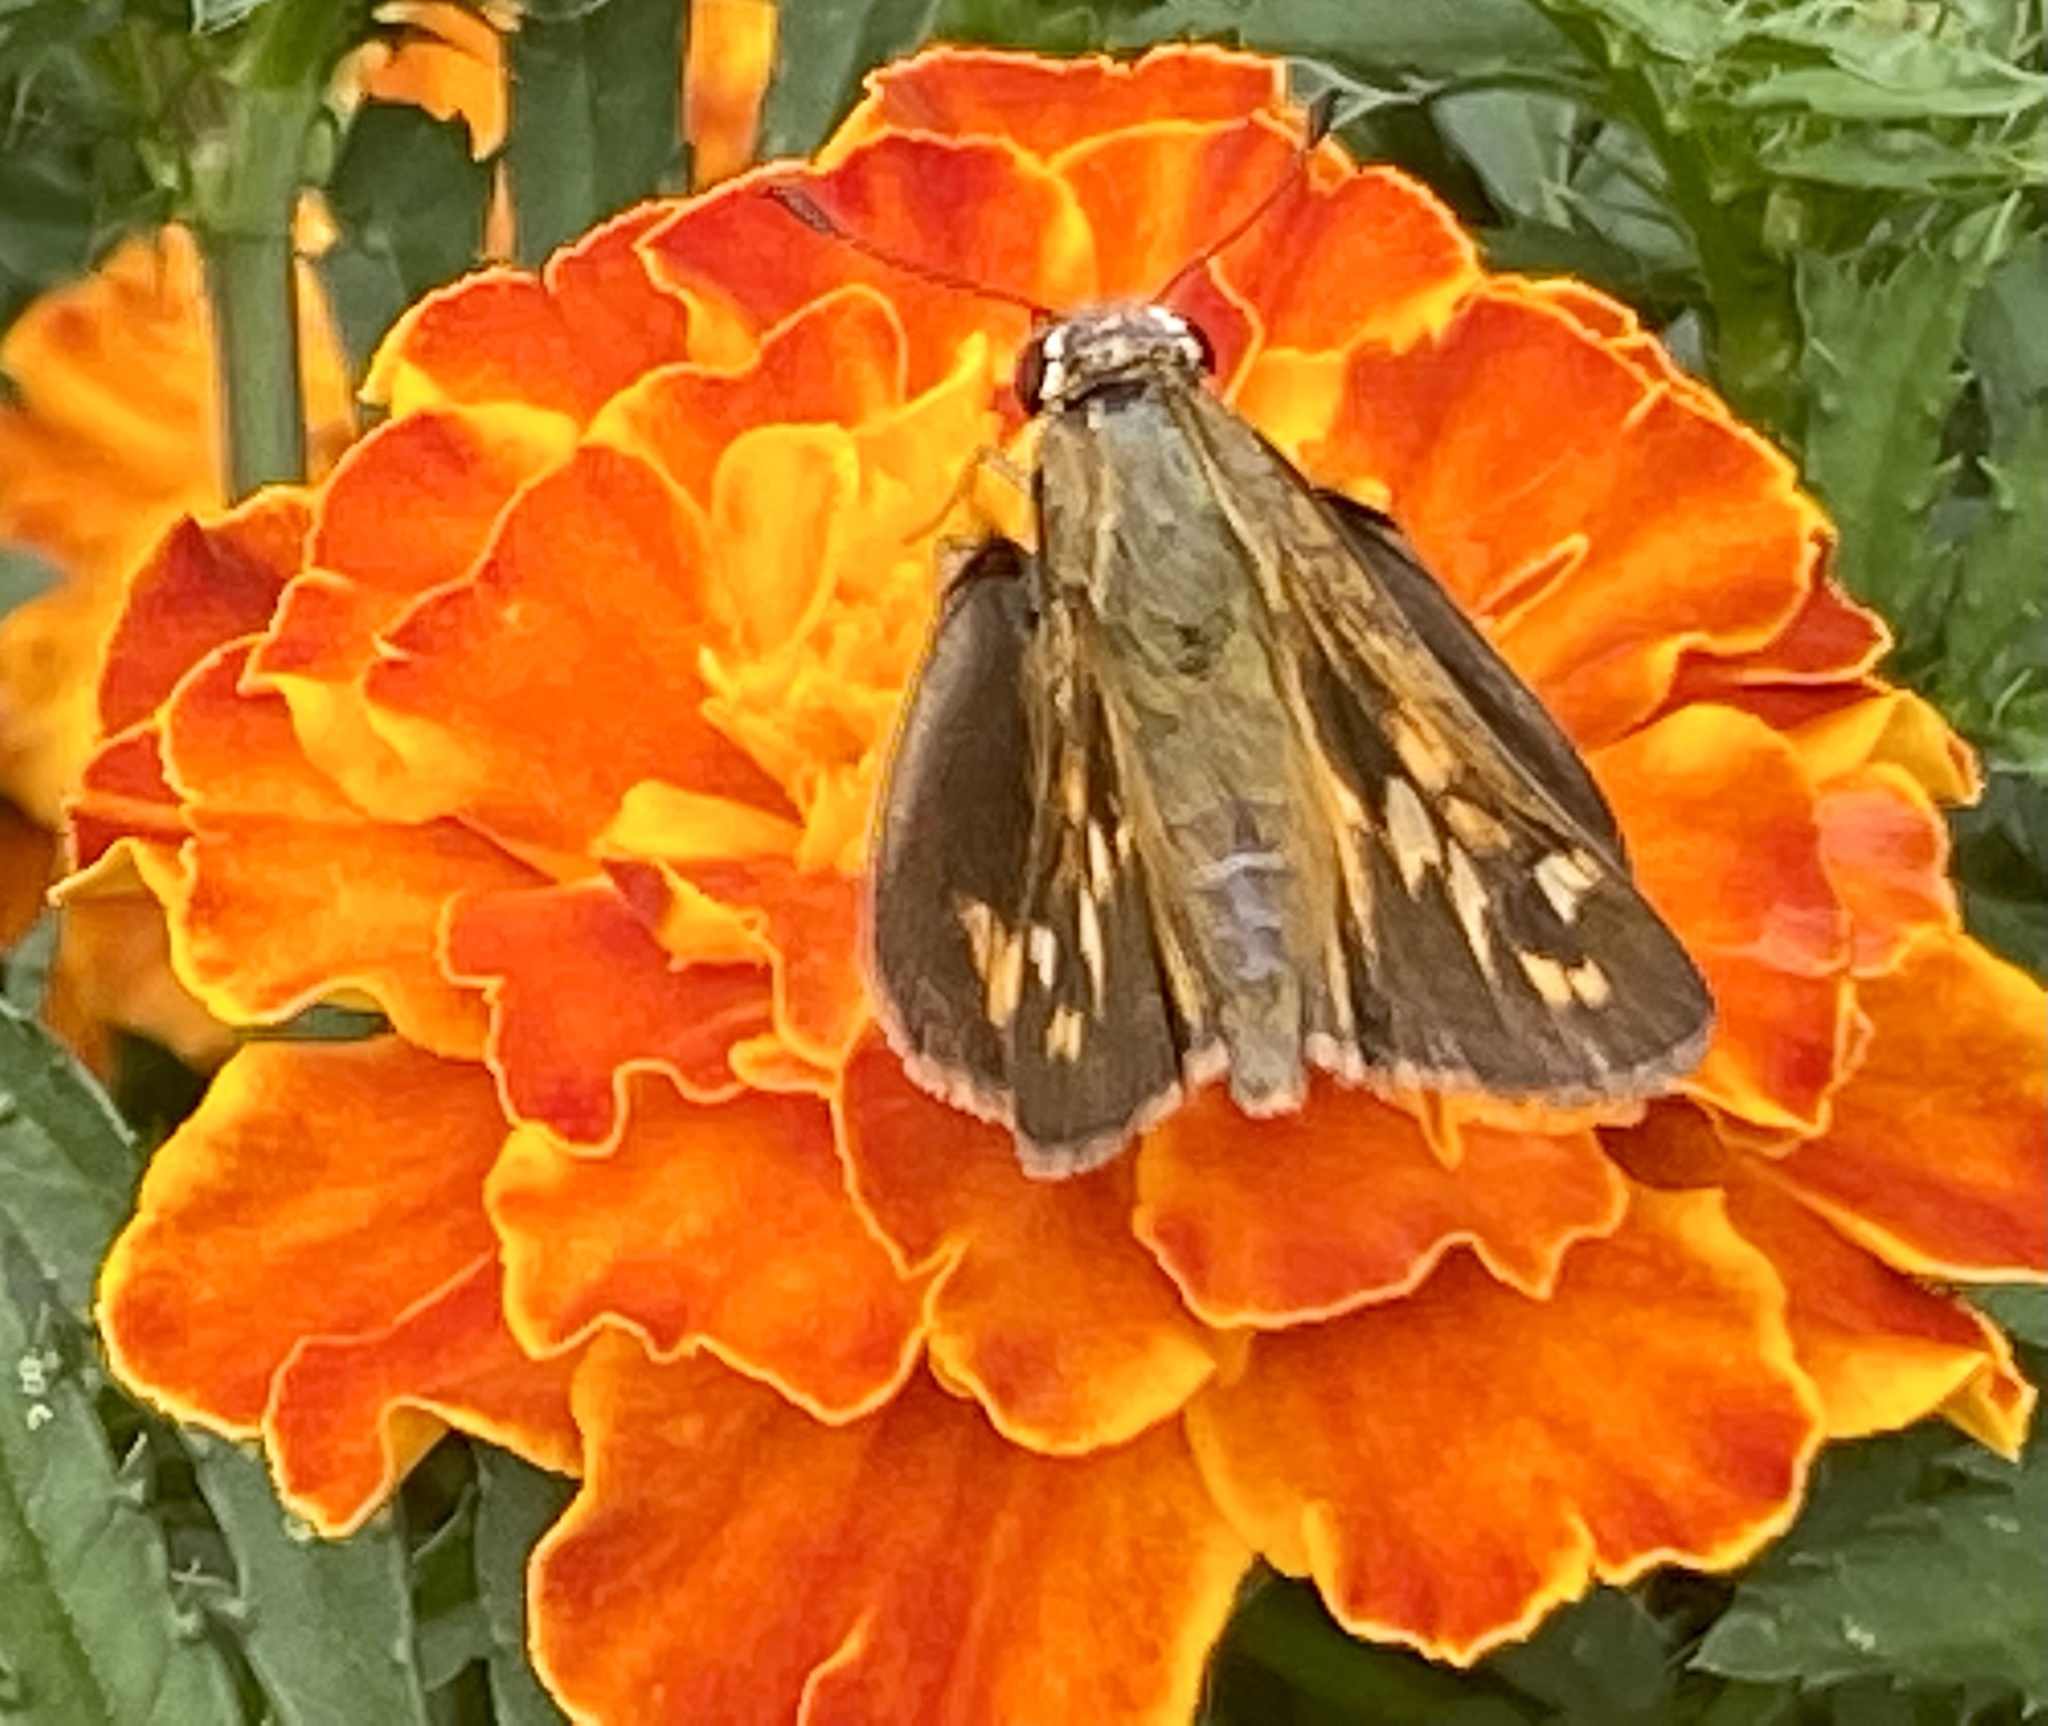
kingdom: Animalia
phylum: Arthropoda
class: Insecta
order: Lepidoptera
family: Hesperiidae
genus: Atalopedes
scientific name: Atalopedes
